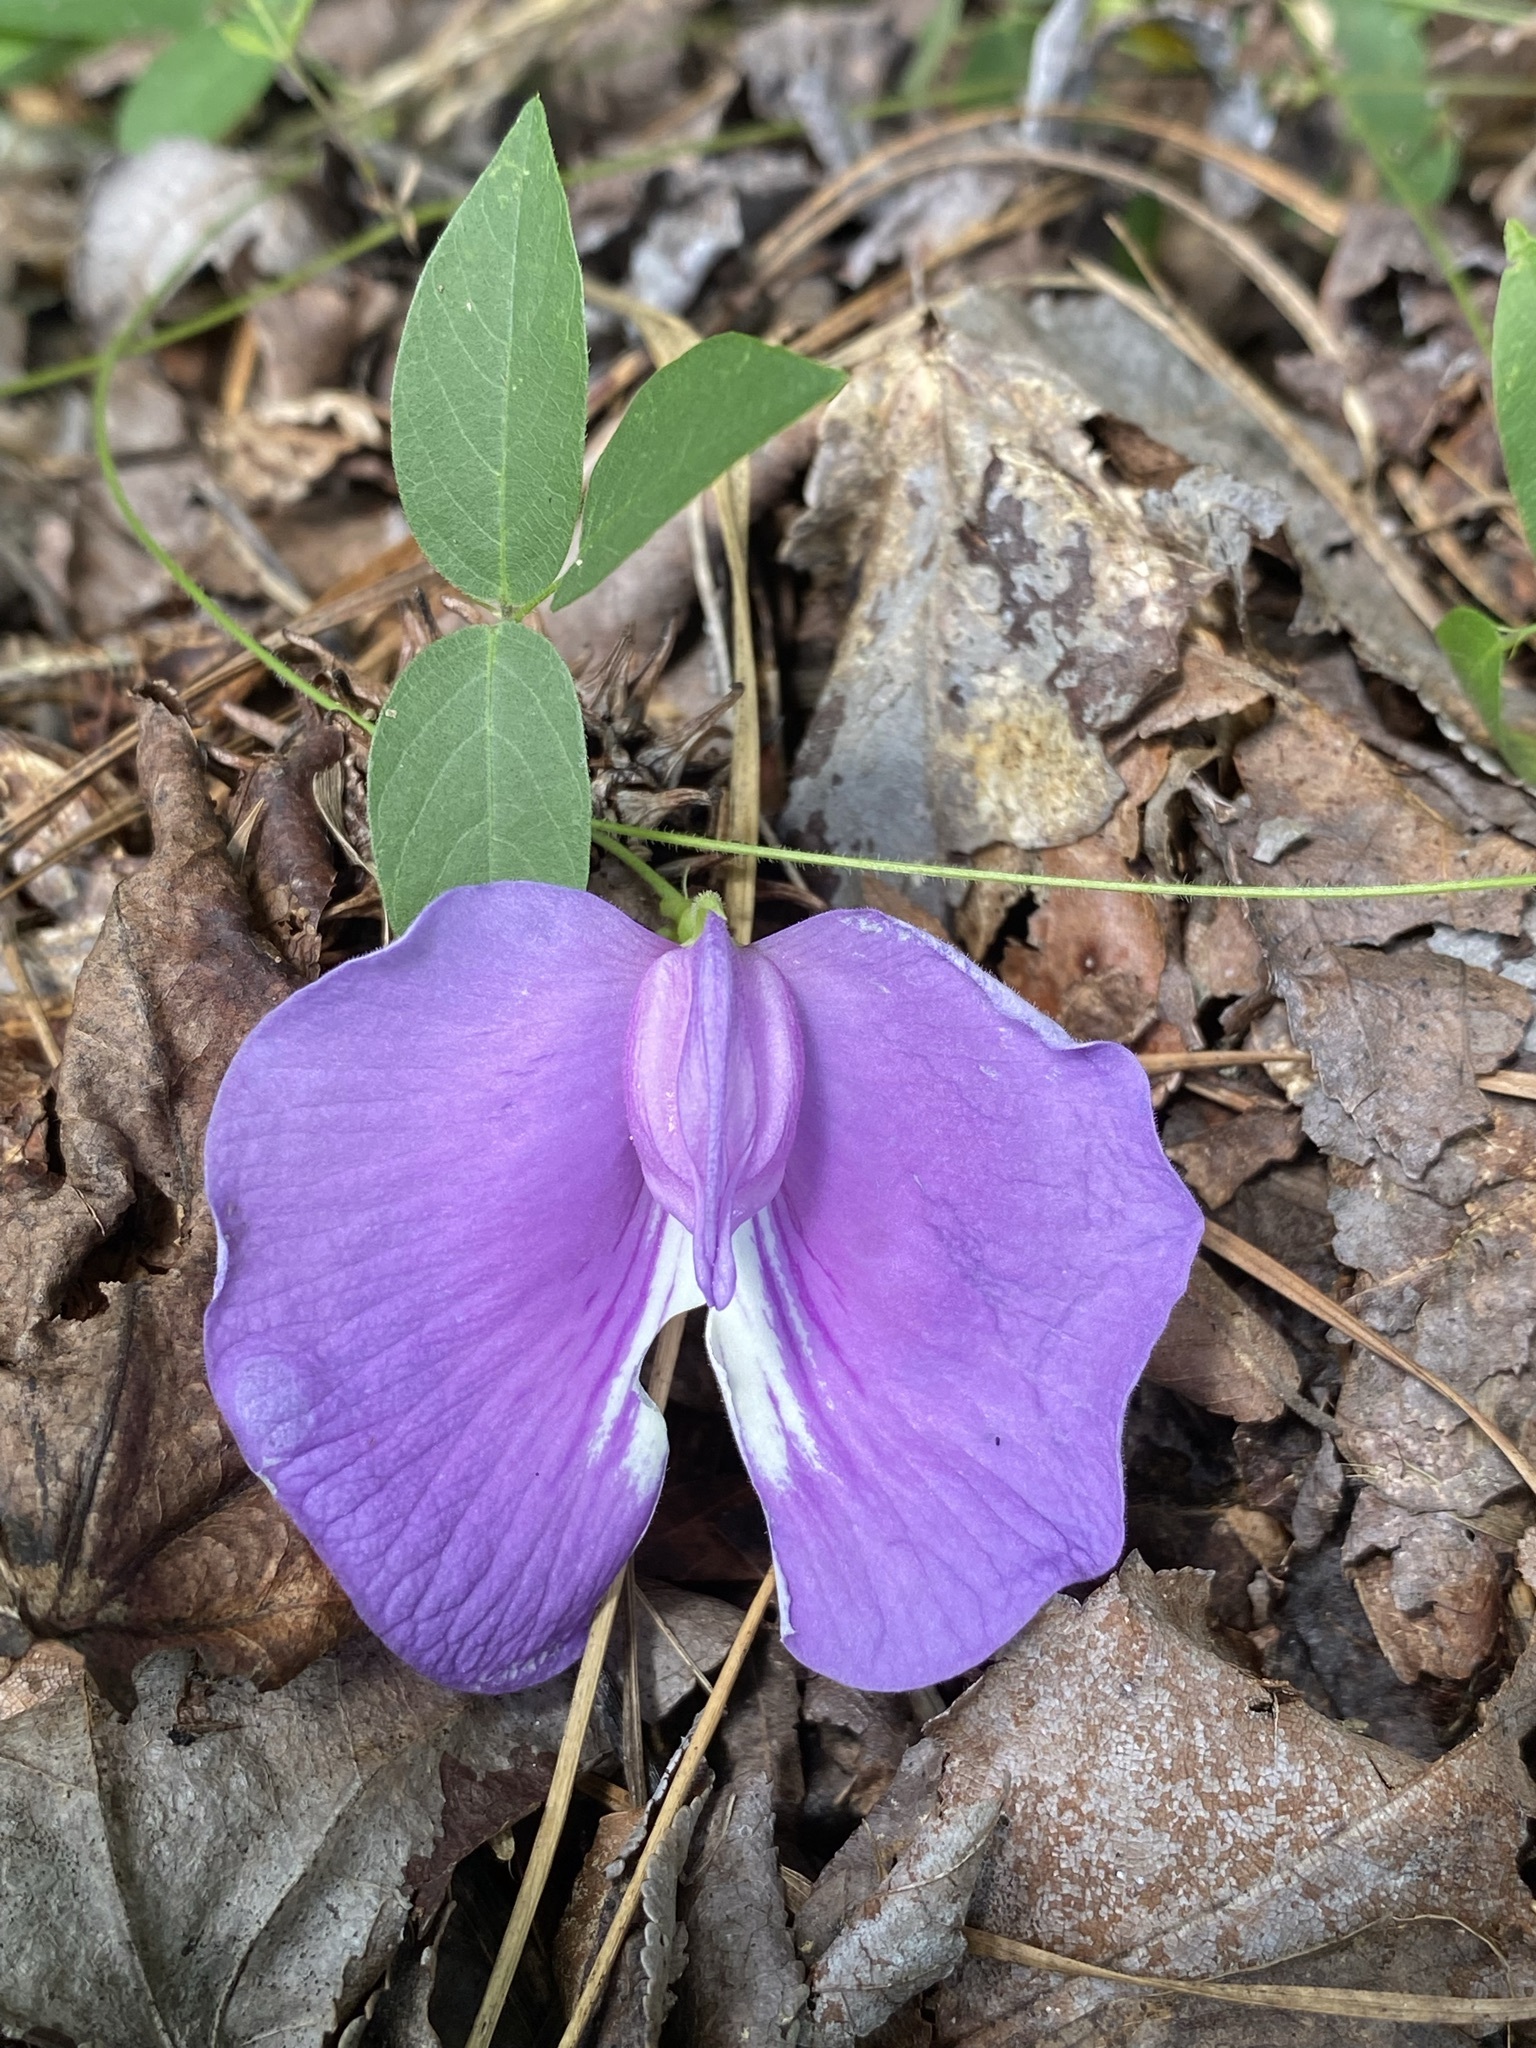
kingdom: Plantae
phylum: Tracheophyta
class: Magnoliopsida
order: Fabales
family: Fabaceae
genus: Centrosema
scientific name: Centrosema virginianum
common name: Butterfly-pea
